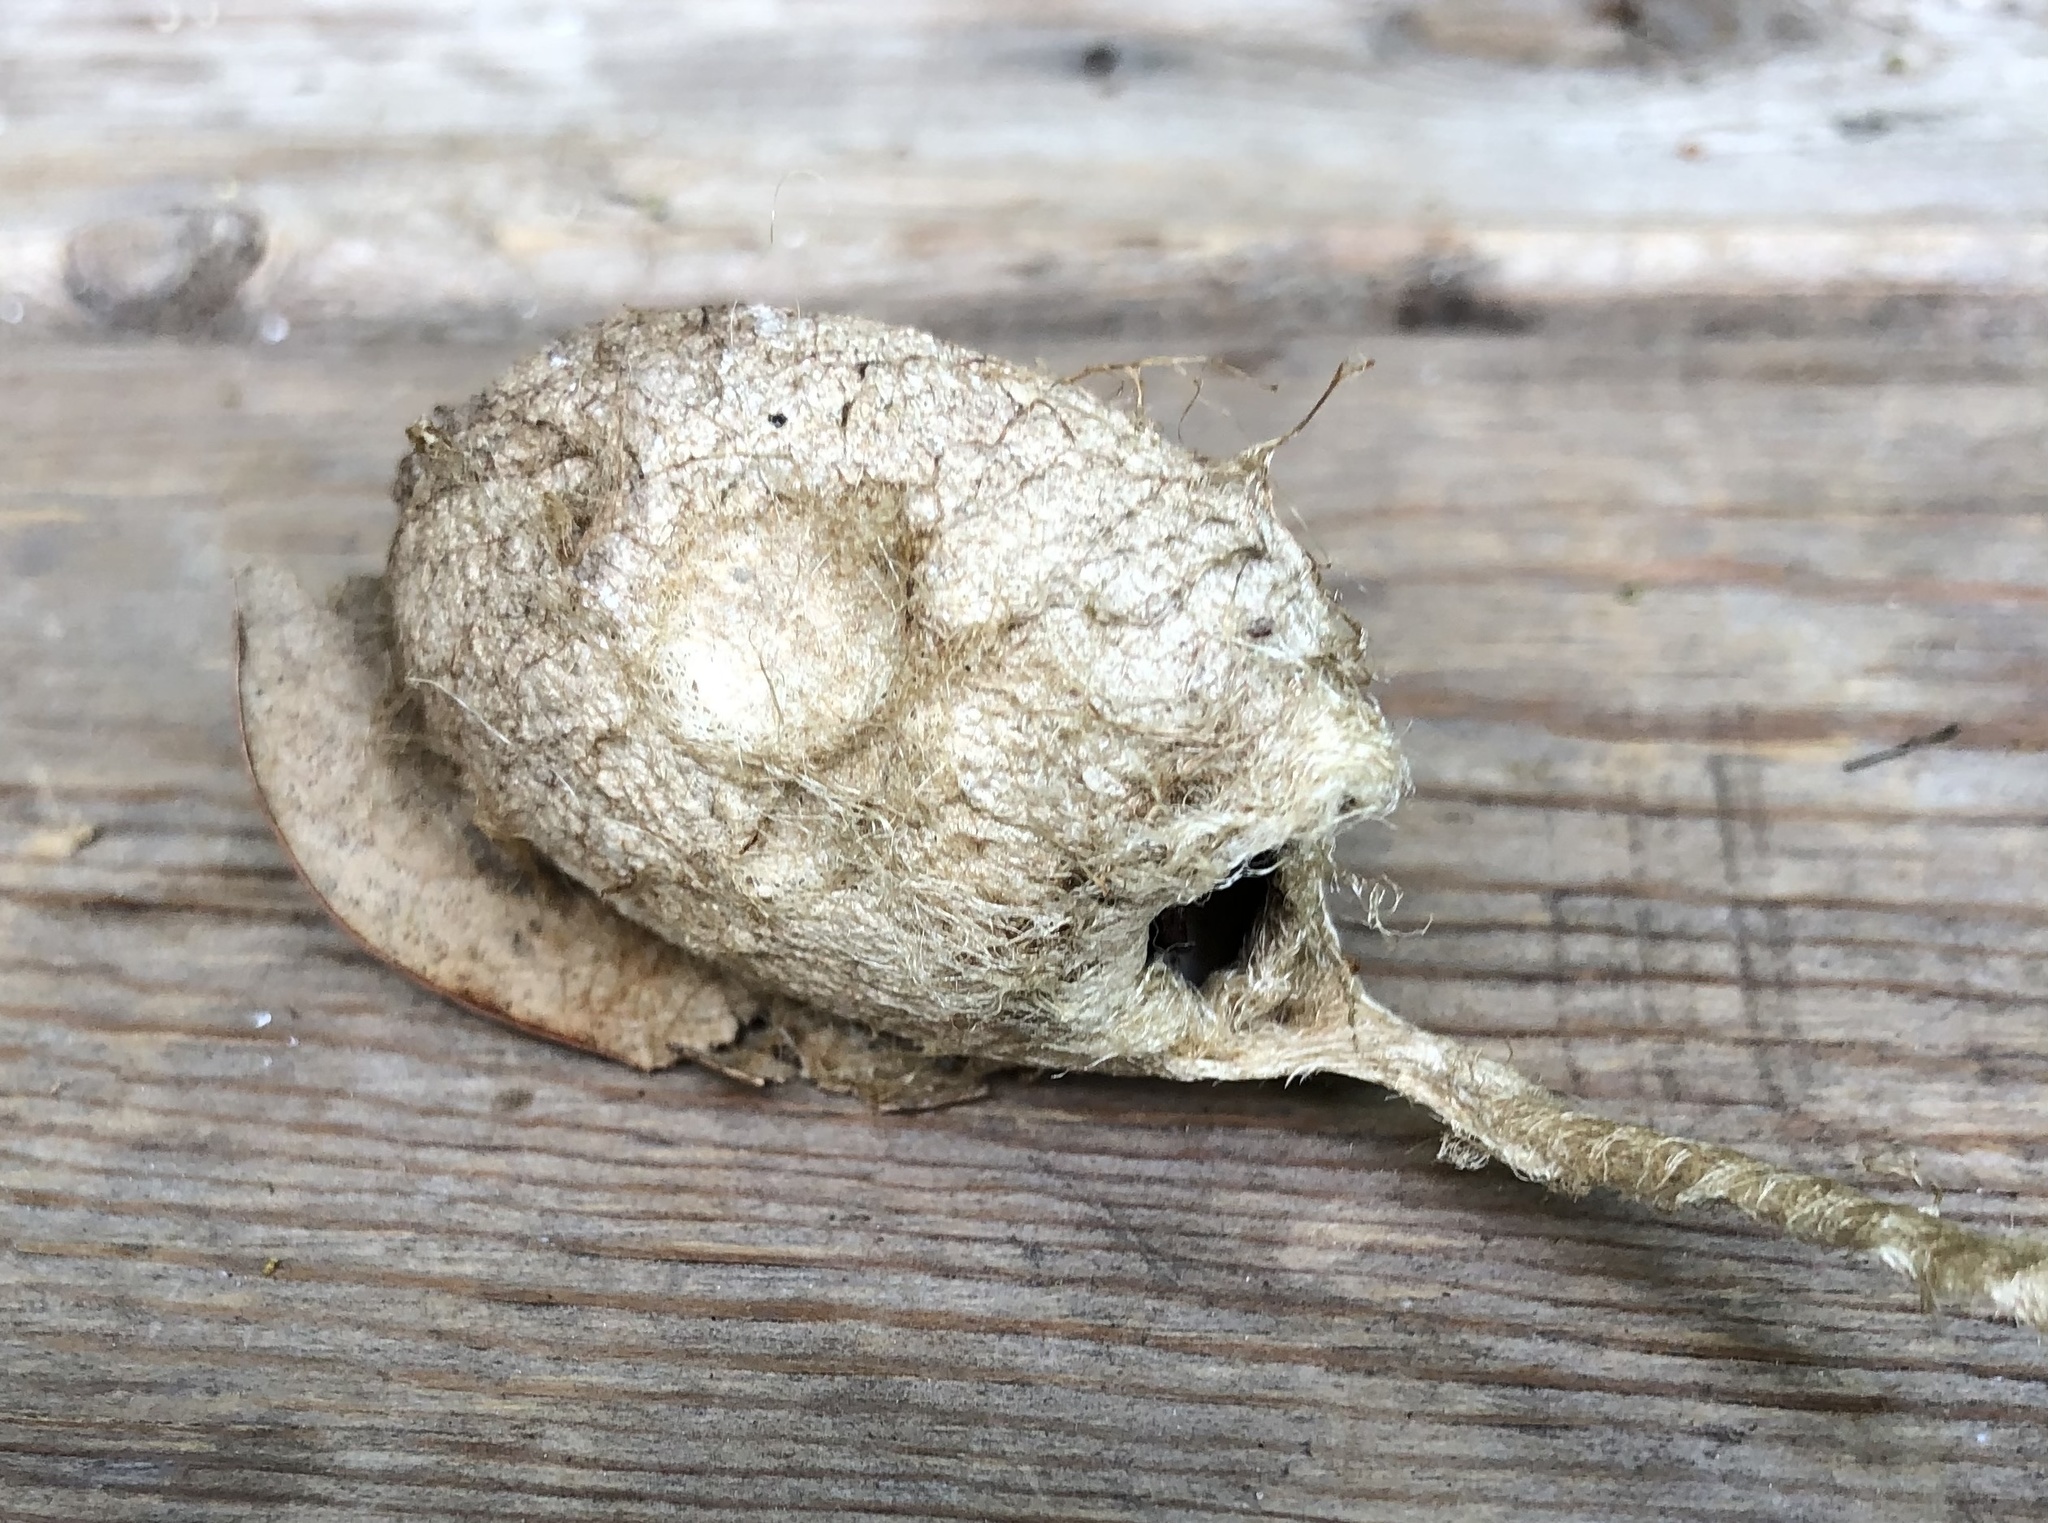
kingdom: Animalia
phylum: Arthropoda
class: Insecta
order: Lepidoptera
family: Saturniidae
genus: Antheraea
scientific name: Antheraea polyphemus
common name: Polyphemus moth
